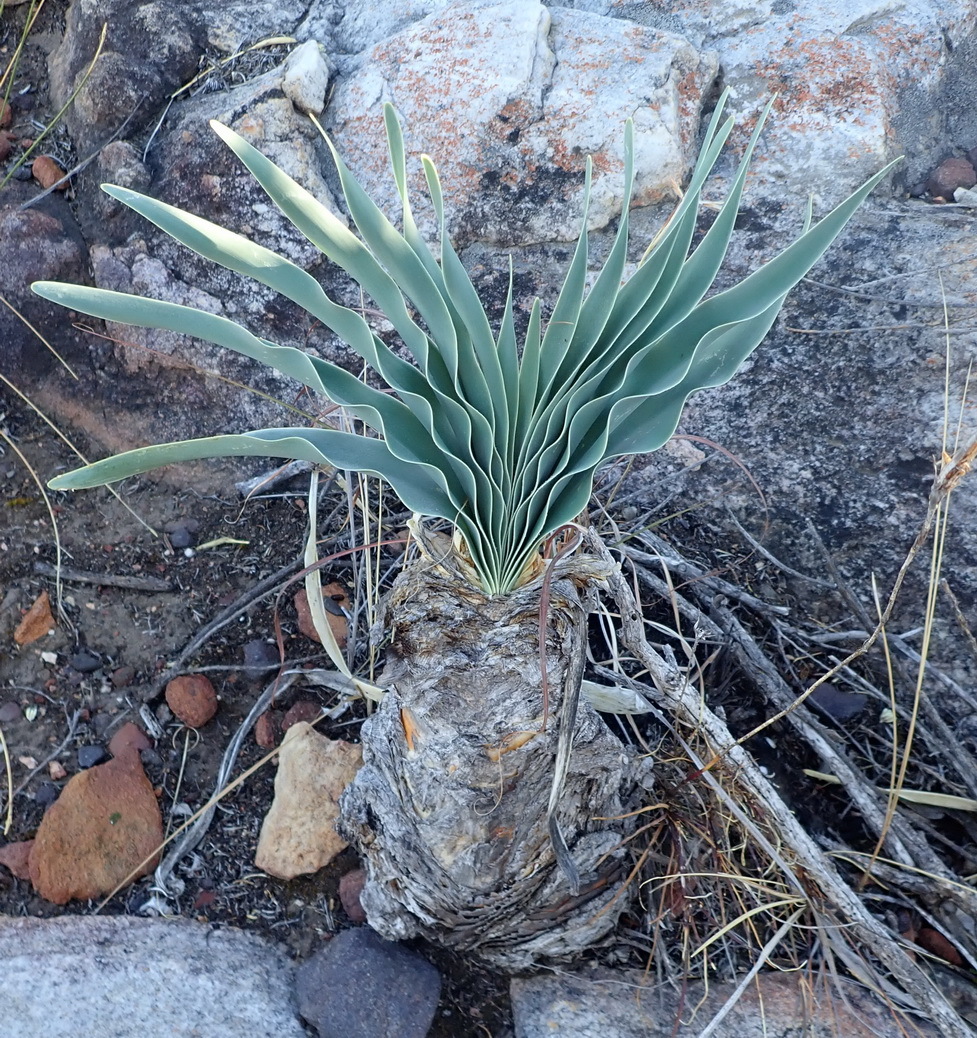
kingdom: Plantae
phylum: Tracheophyta
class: Liliopsida
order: Asparagales
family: Amaryllidaceae
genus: Boophone
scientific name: Boophone disticha
